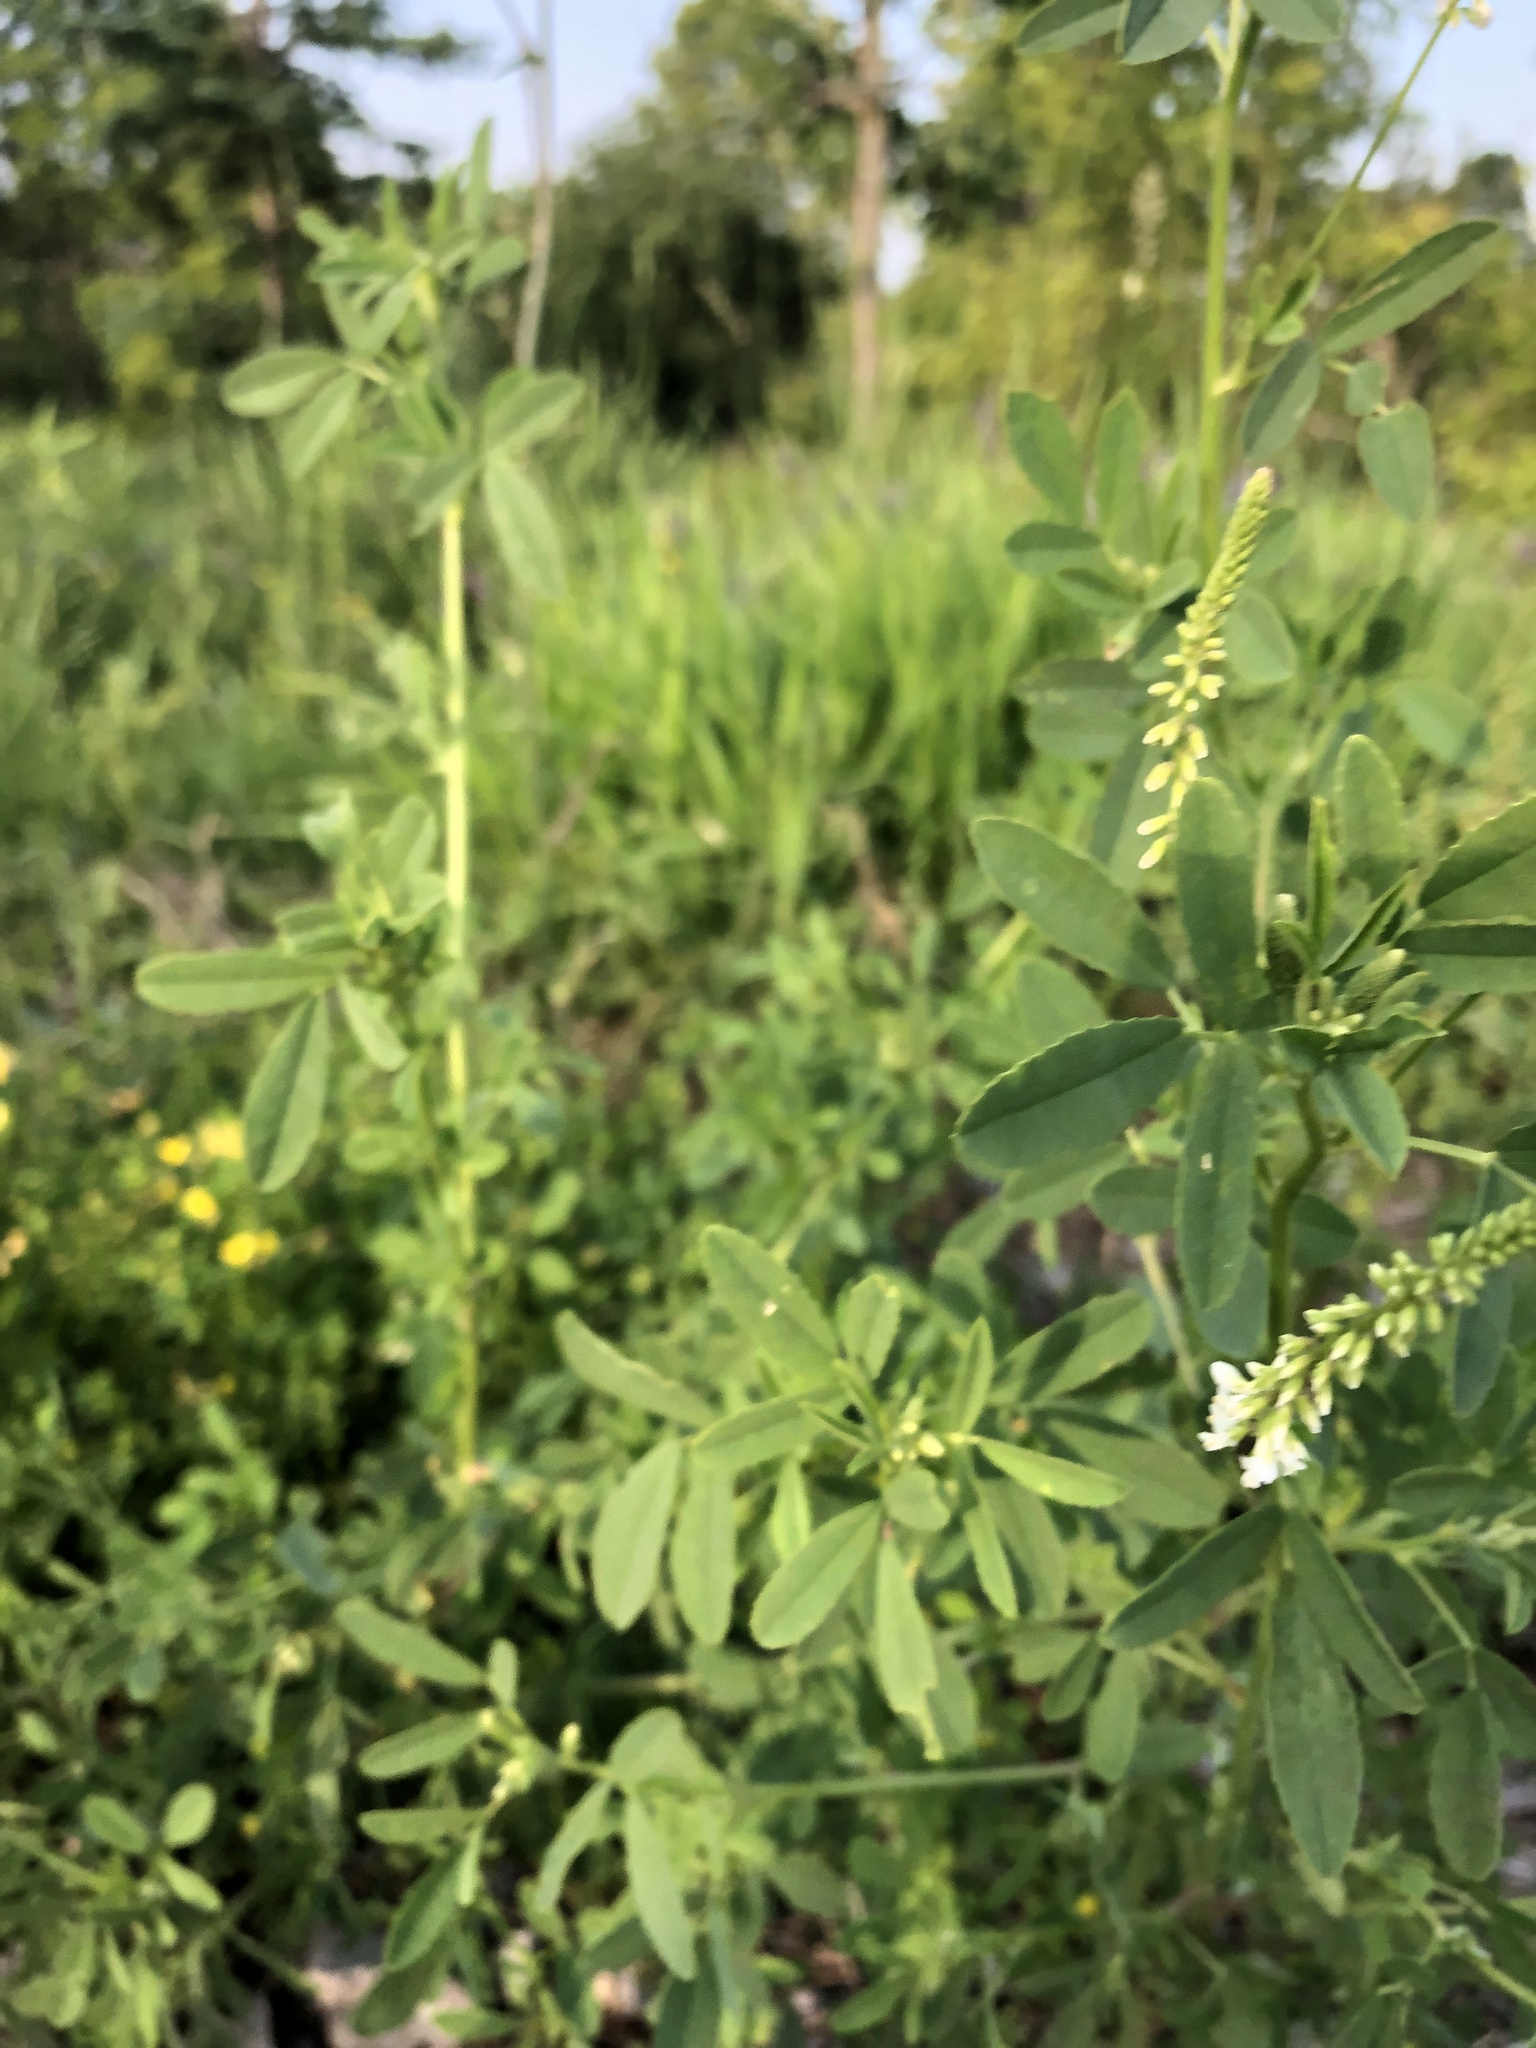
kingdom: Plantae
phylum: Tracheophyta
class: Magnoliopsida
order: Fabales
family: Fabaceae
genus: Melilotus
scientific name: Melilotus albus
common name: White melilot
